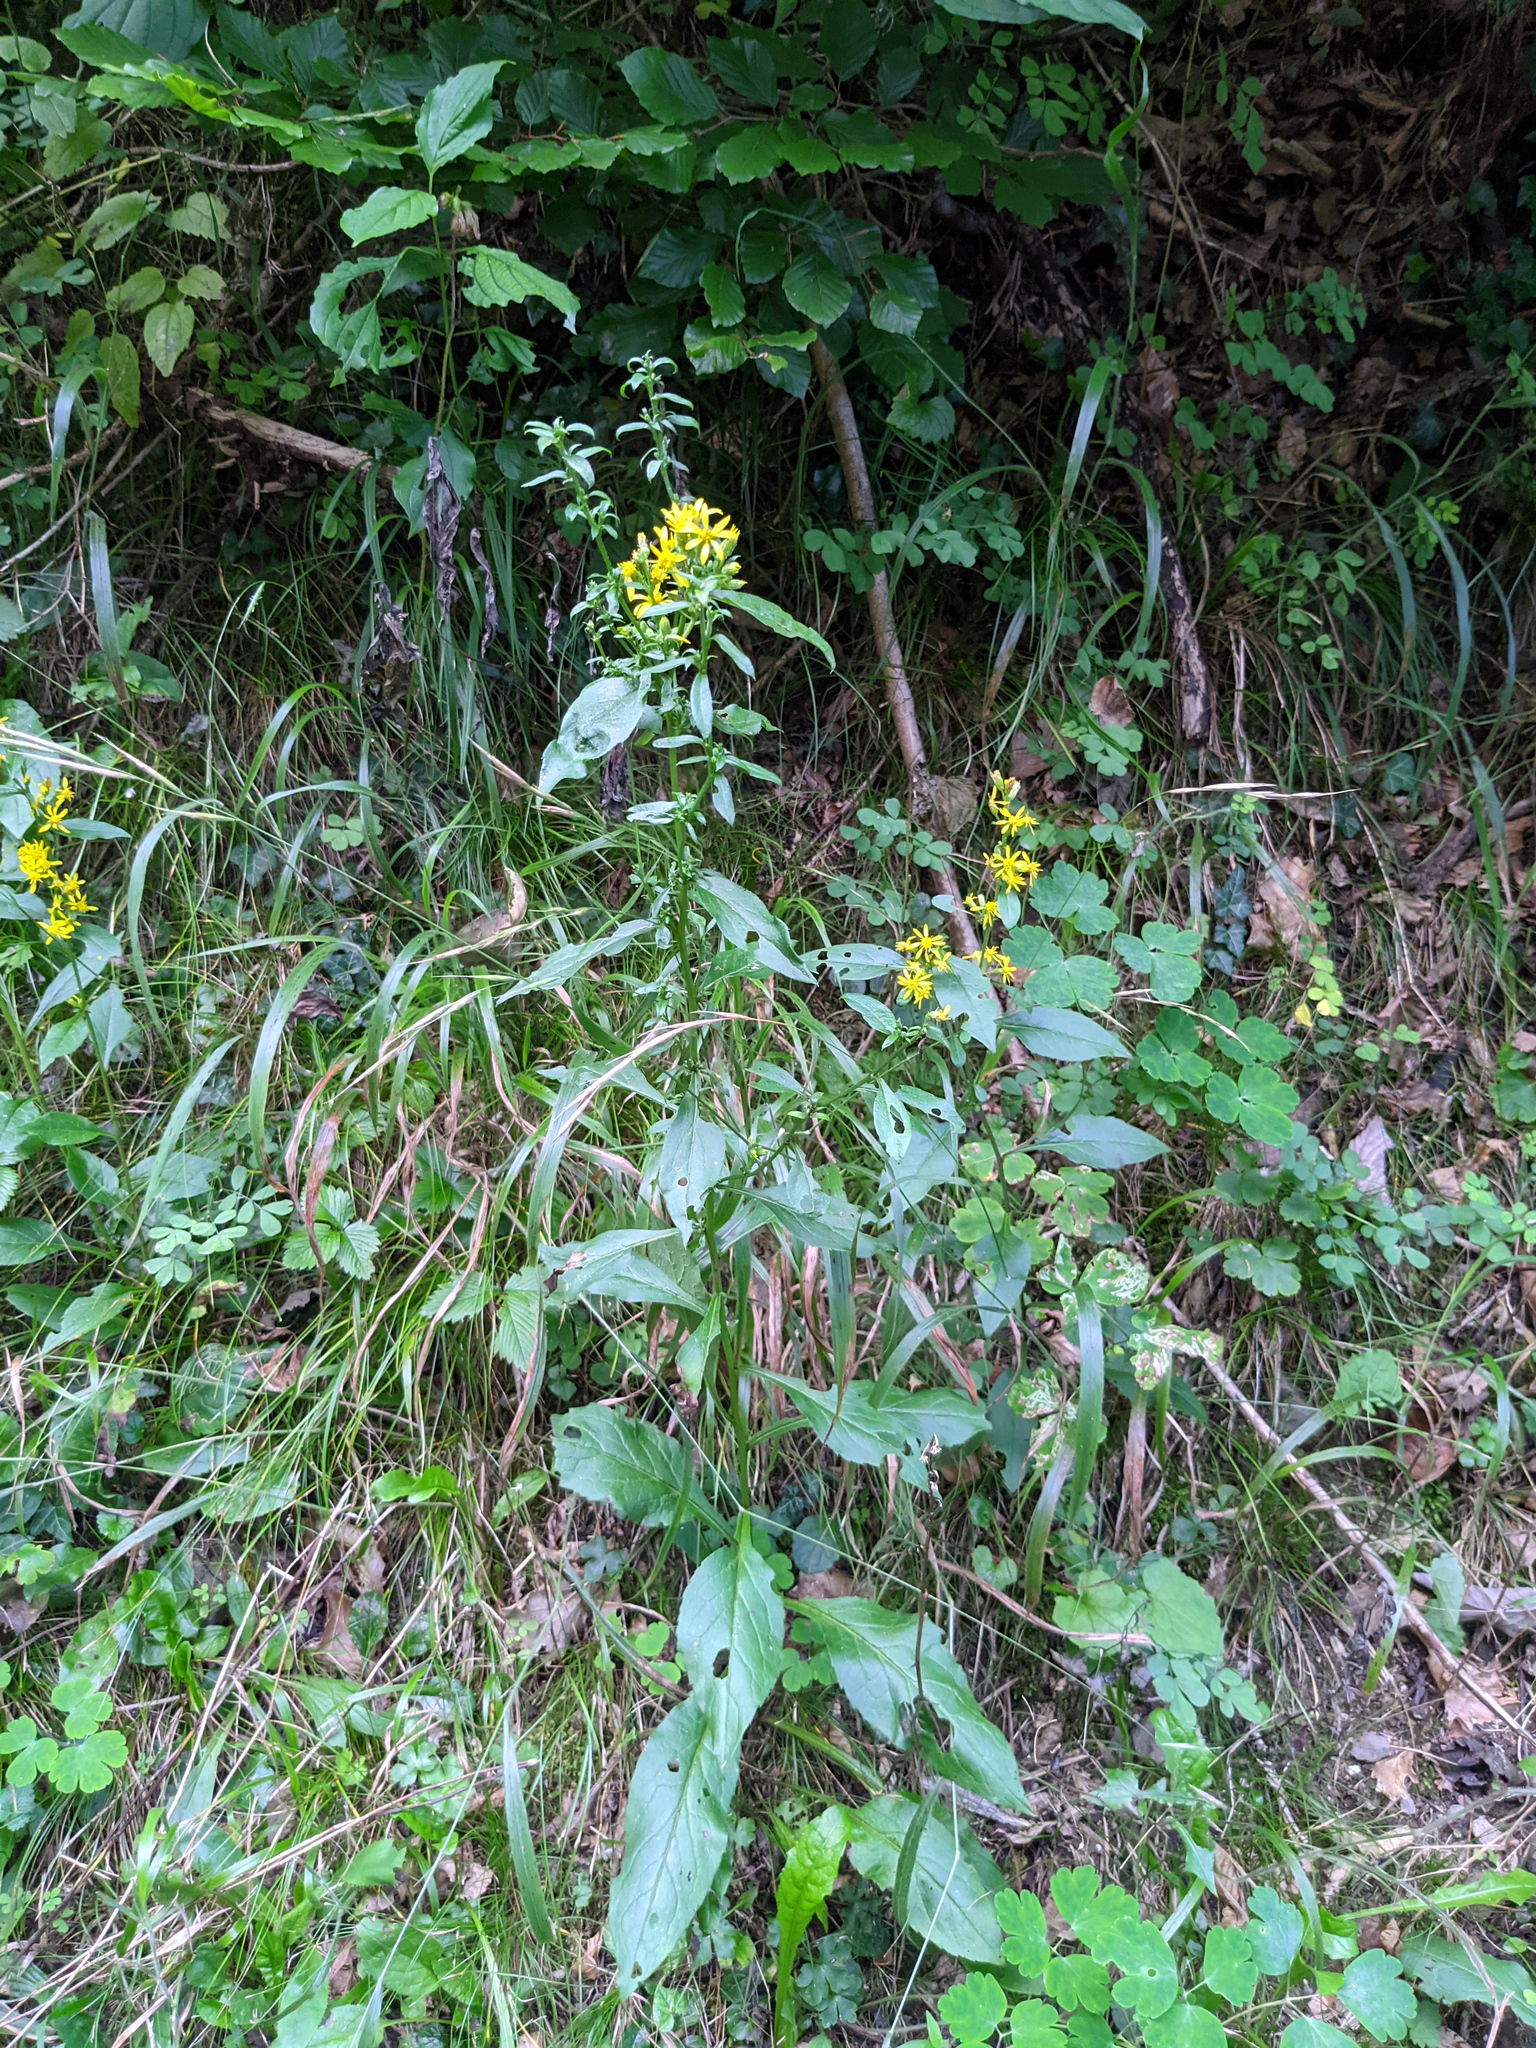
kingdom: Plantae
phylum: Tracheophyta
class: Magnoliopsida
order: Asterales
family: Asteraceae
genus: Solidago
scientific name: Solidago virgaurea
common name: Goldenrod
